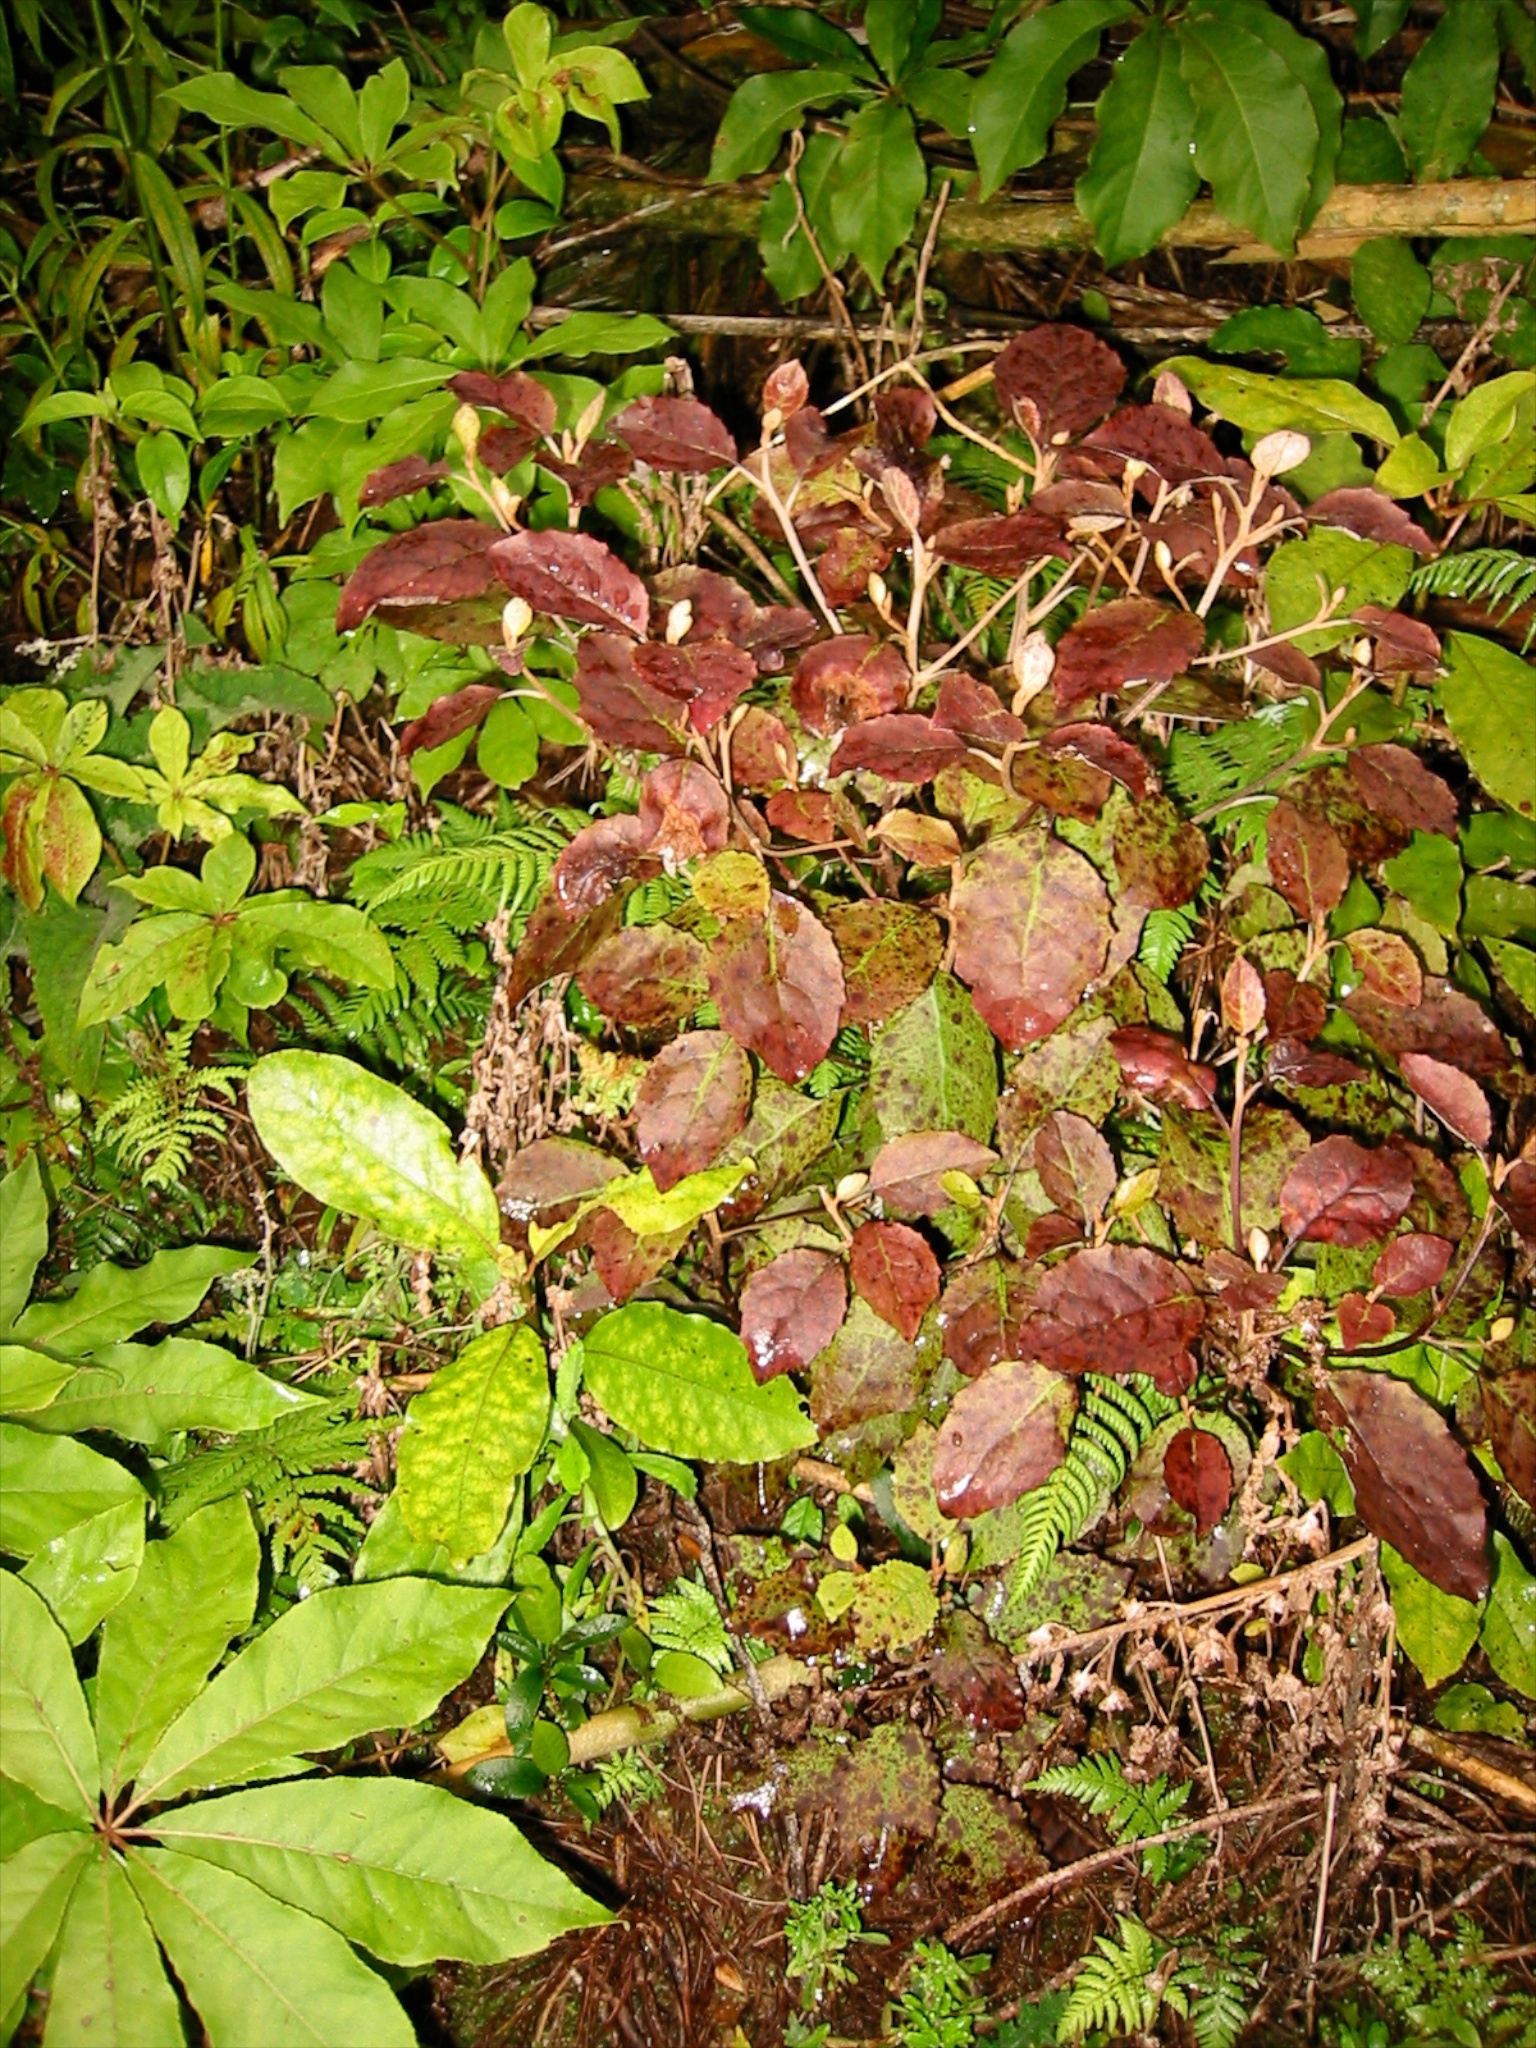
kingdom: Plantae
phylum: Tracheophyta
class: Magnoliopsida
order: Asterales
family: Asteraceae
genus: Olearia
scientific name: Olearia rani
